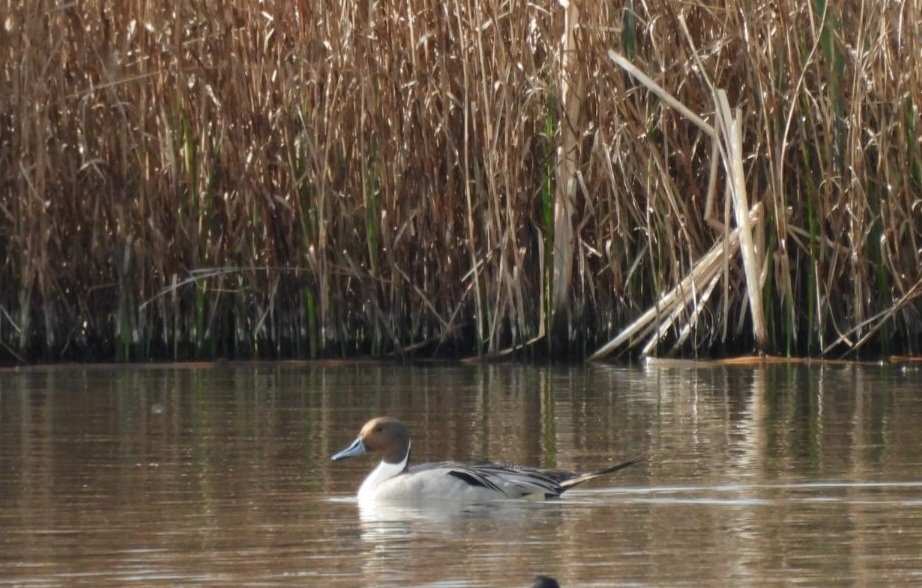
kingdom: Animalia
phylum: Chordata
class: Aves
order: Anseriformes
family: Anatidae
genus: Anas
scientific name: Anas acuta
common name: Northern pintail
